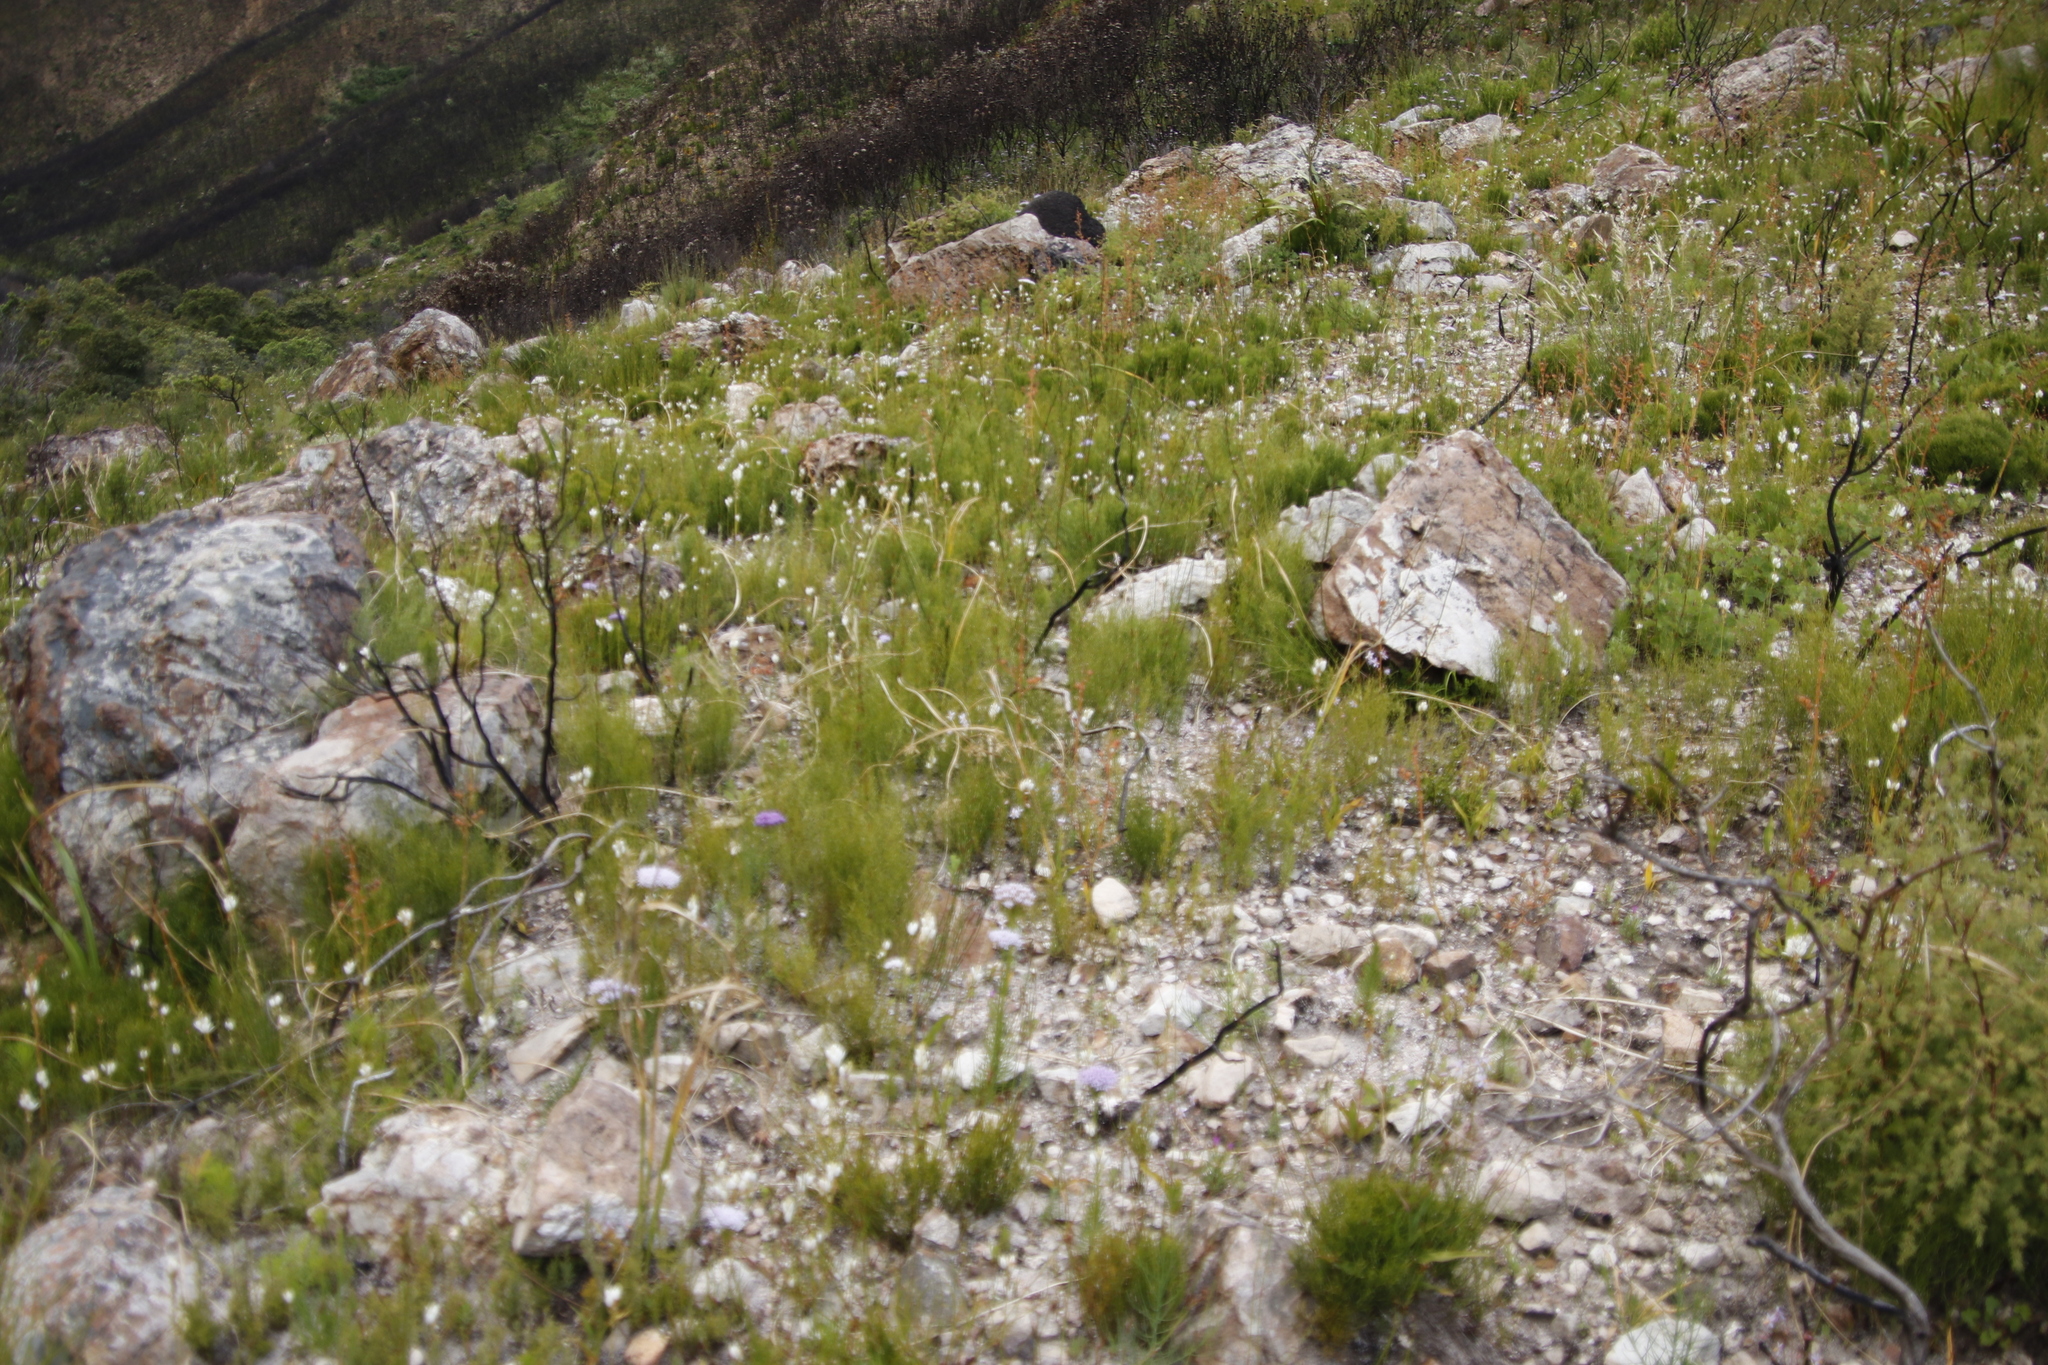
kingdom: Plantae
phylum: Tracheophyta
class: Liliopsida
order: Asparagales
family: Iridaceae
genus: Schizorhiza
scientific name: Schizorhiza neglecta
